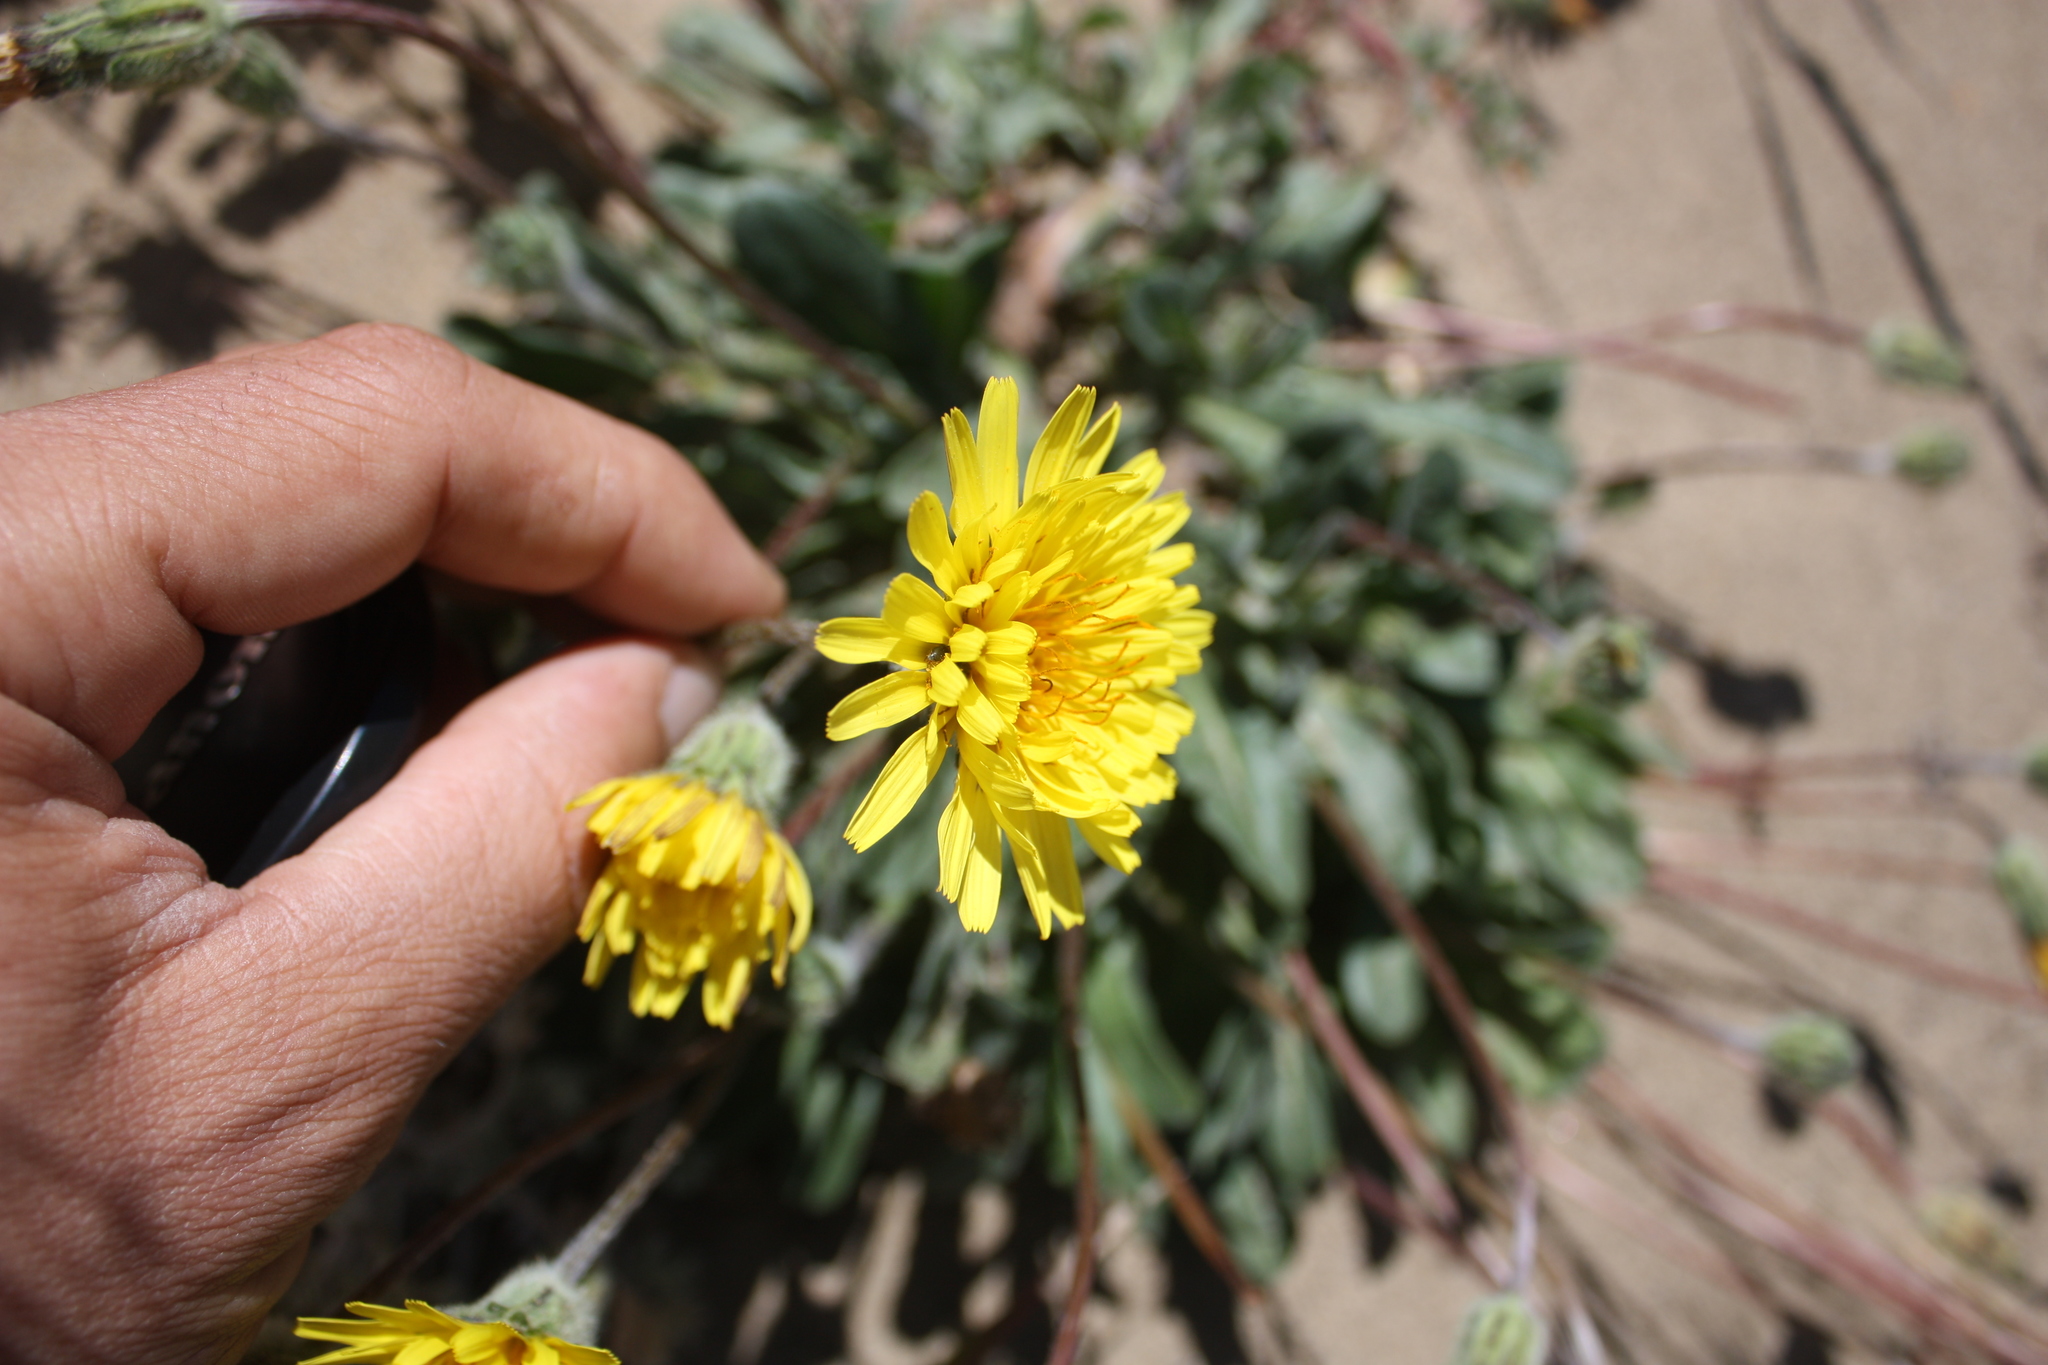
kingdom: Plantae
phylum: Tracheophyta
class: Magnoliopsida
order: Asterales
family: Asteraceae
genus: Agoseris
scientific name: Agoseris apargioides
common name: Point reyes agoseris
